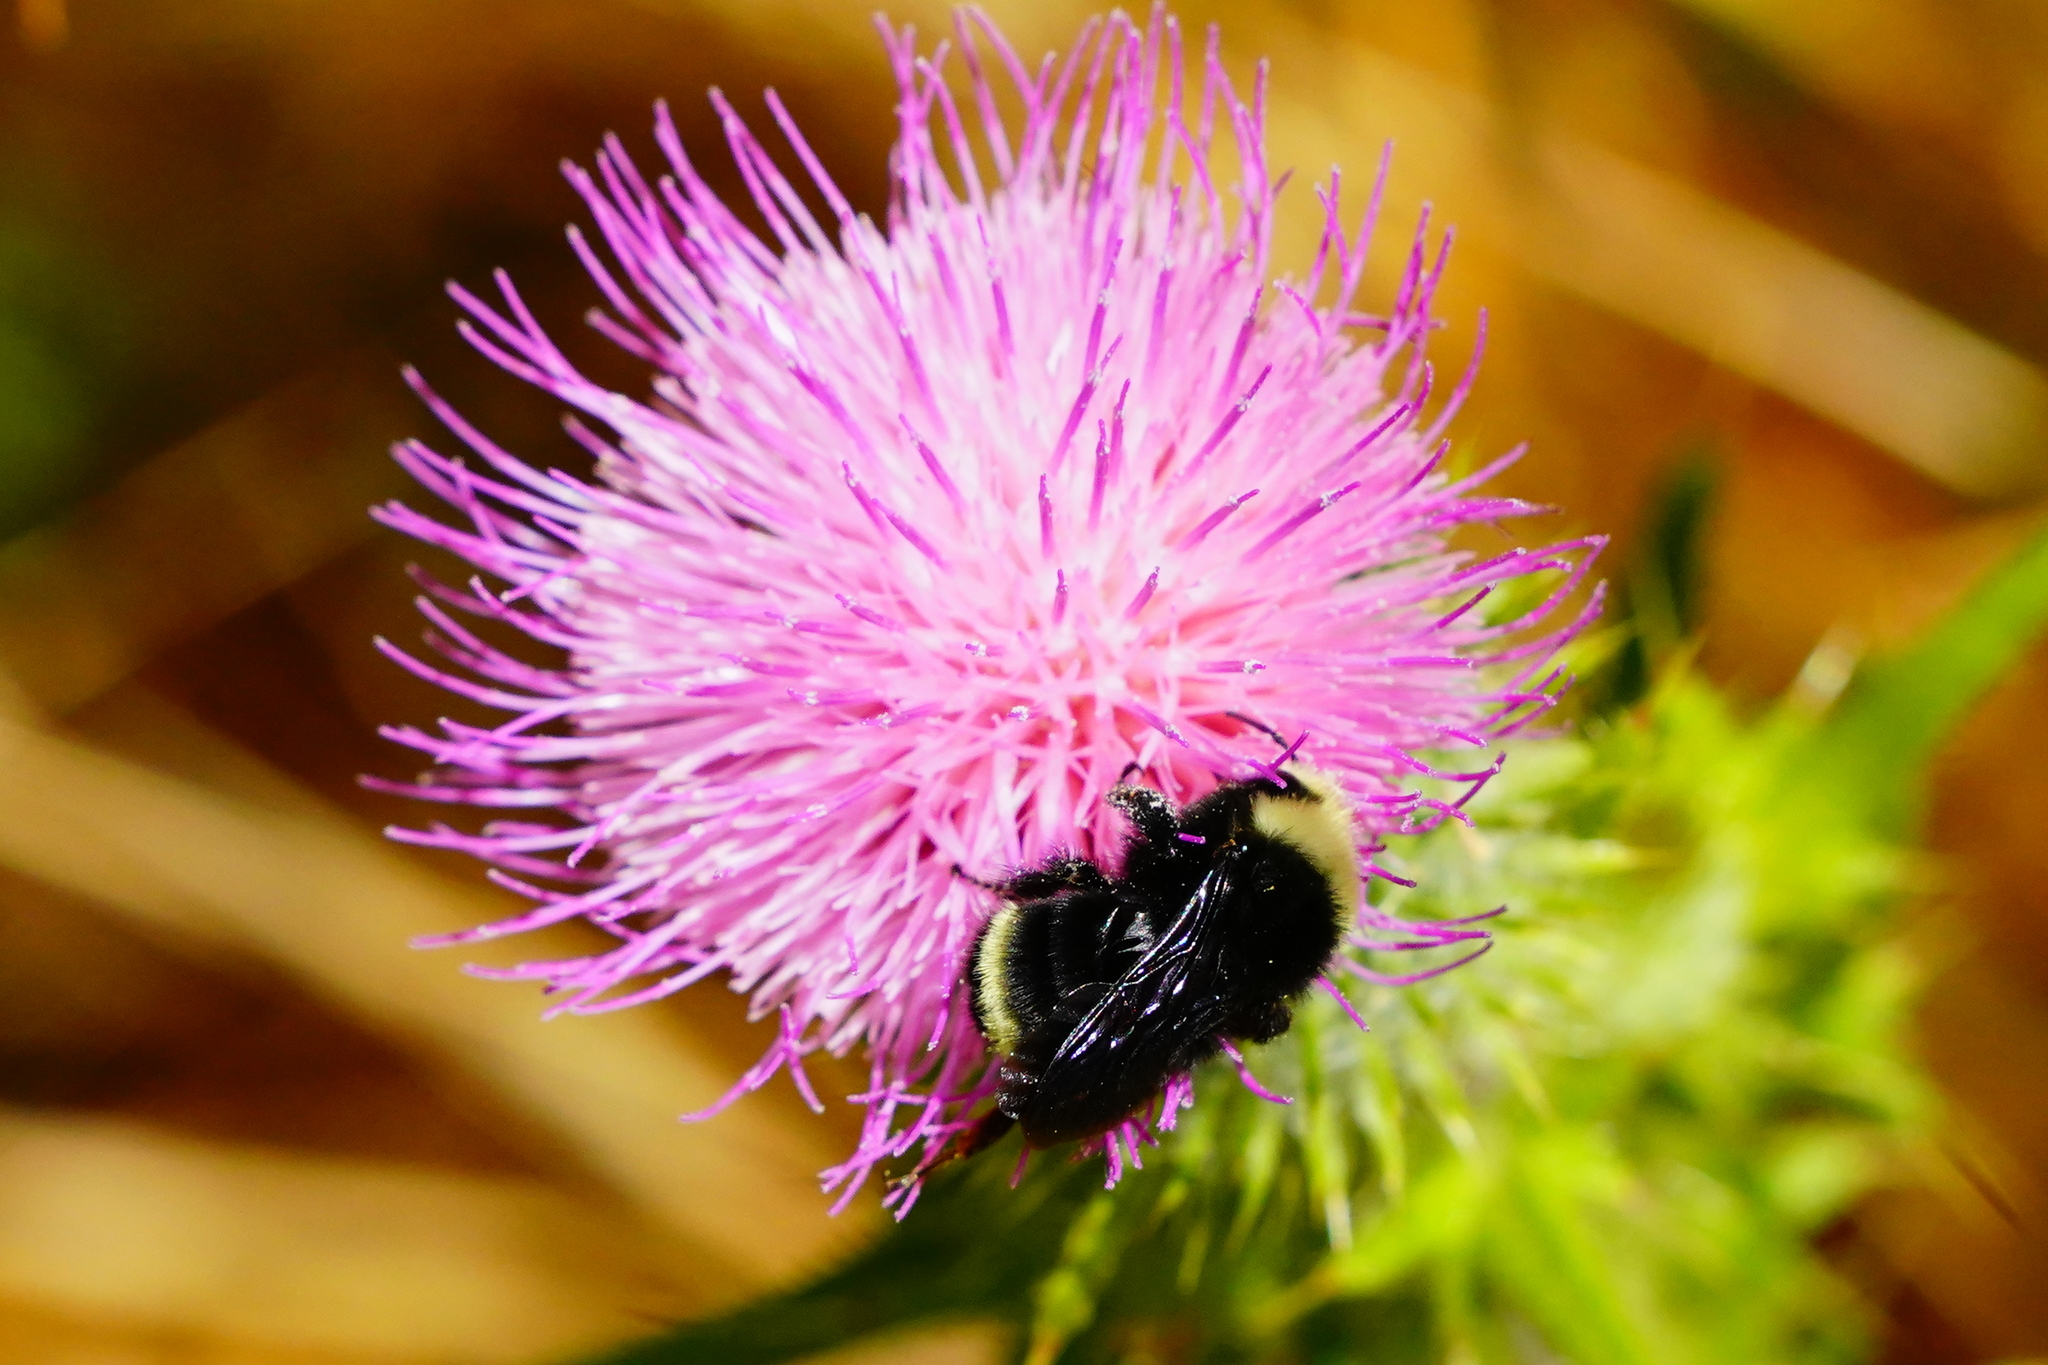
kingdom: Animalia
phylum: Arthropoda
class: Insecta
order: Hymenoptera
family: Apidae
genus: Bombus
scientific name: Bombus vosnesenskii
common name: Vosnesensky bumble bee
